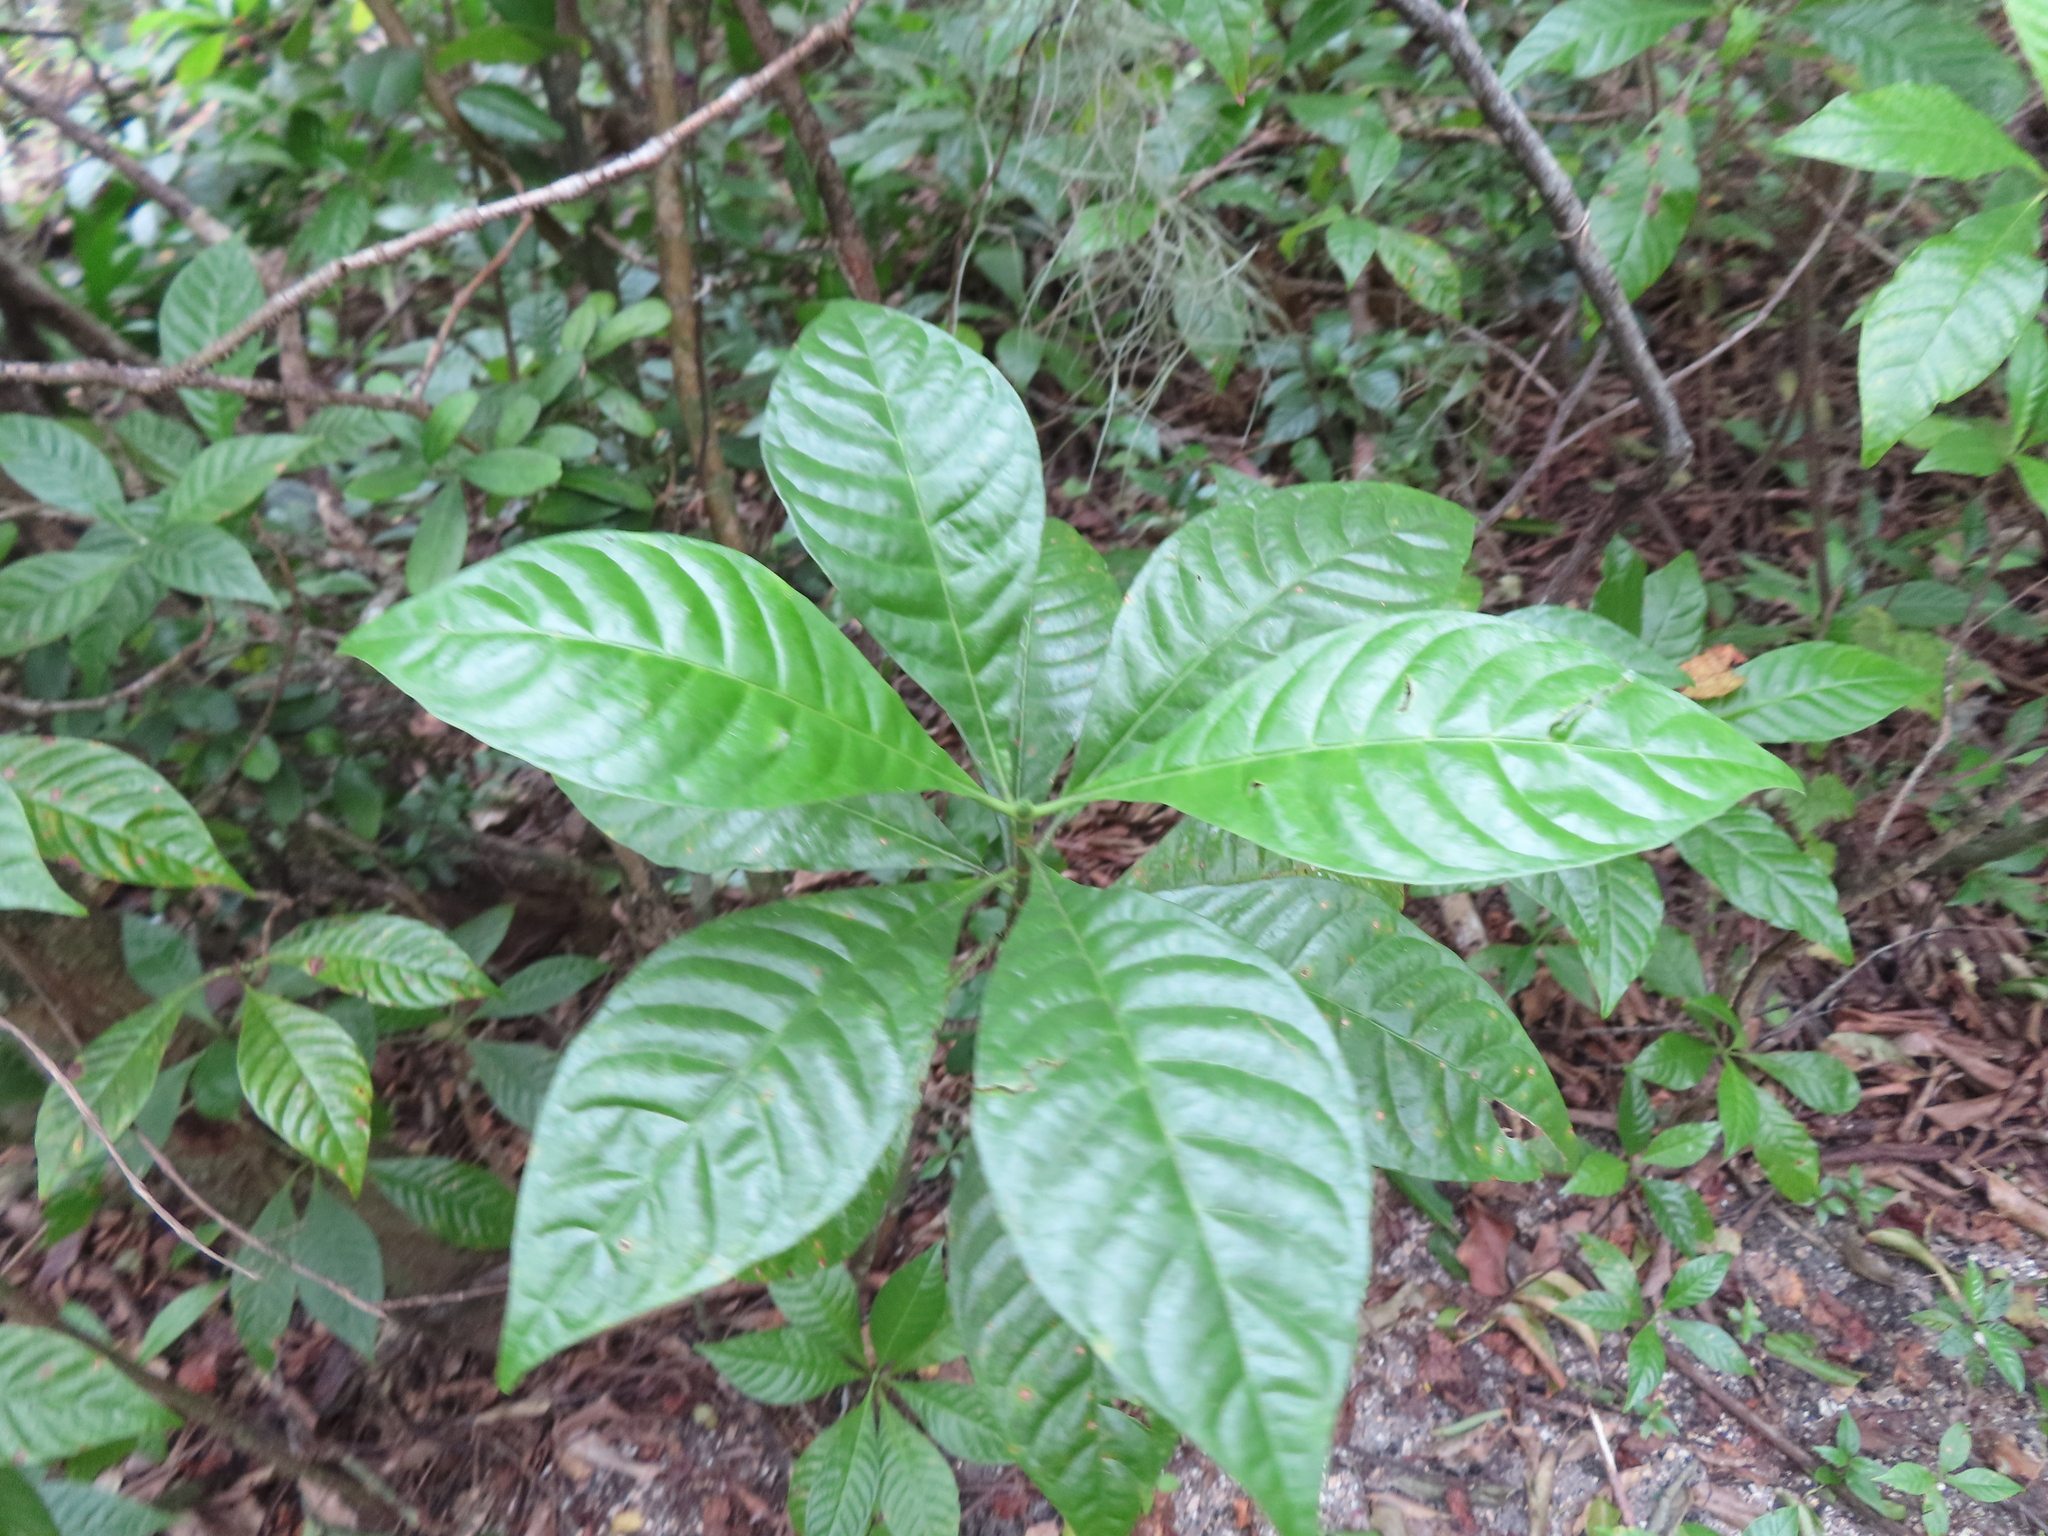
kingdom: Plantae
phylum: Tracheophyta
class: Magnoliopsida
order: Gentianales
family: Rubiaceae
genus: Psychotria
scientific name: Psychotria nervosa
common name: Bastard cankerberry
